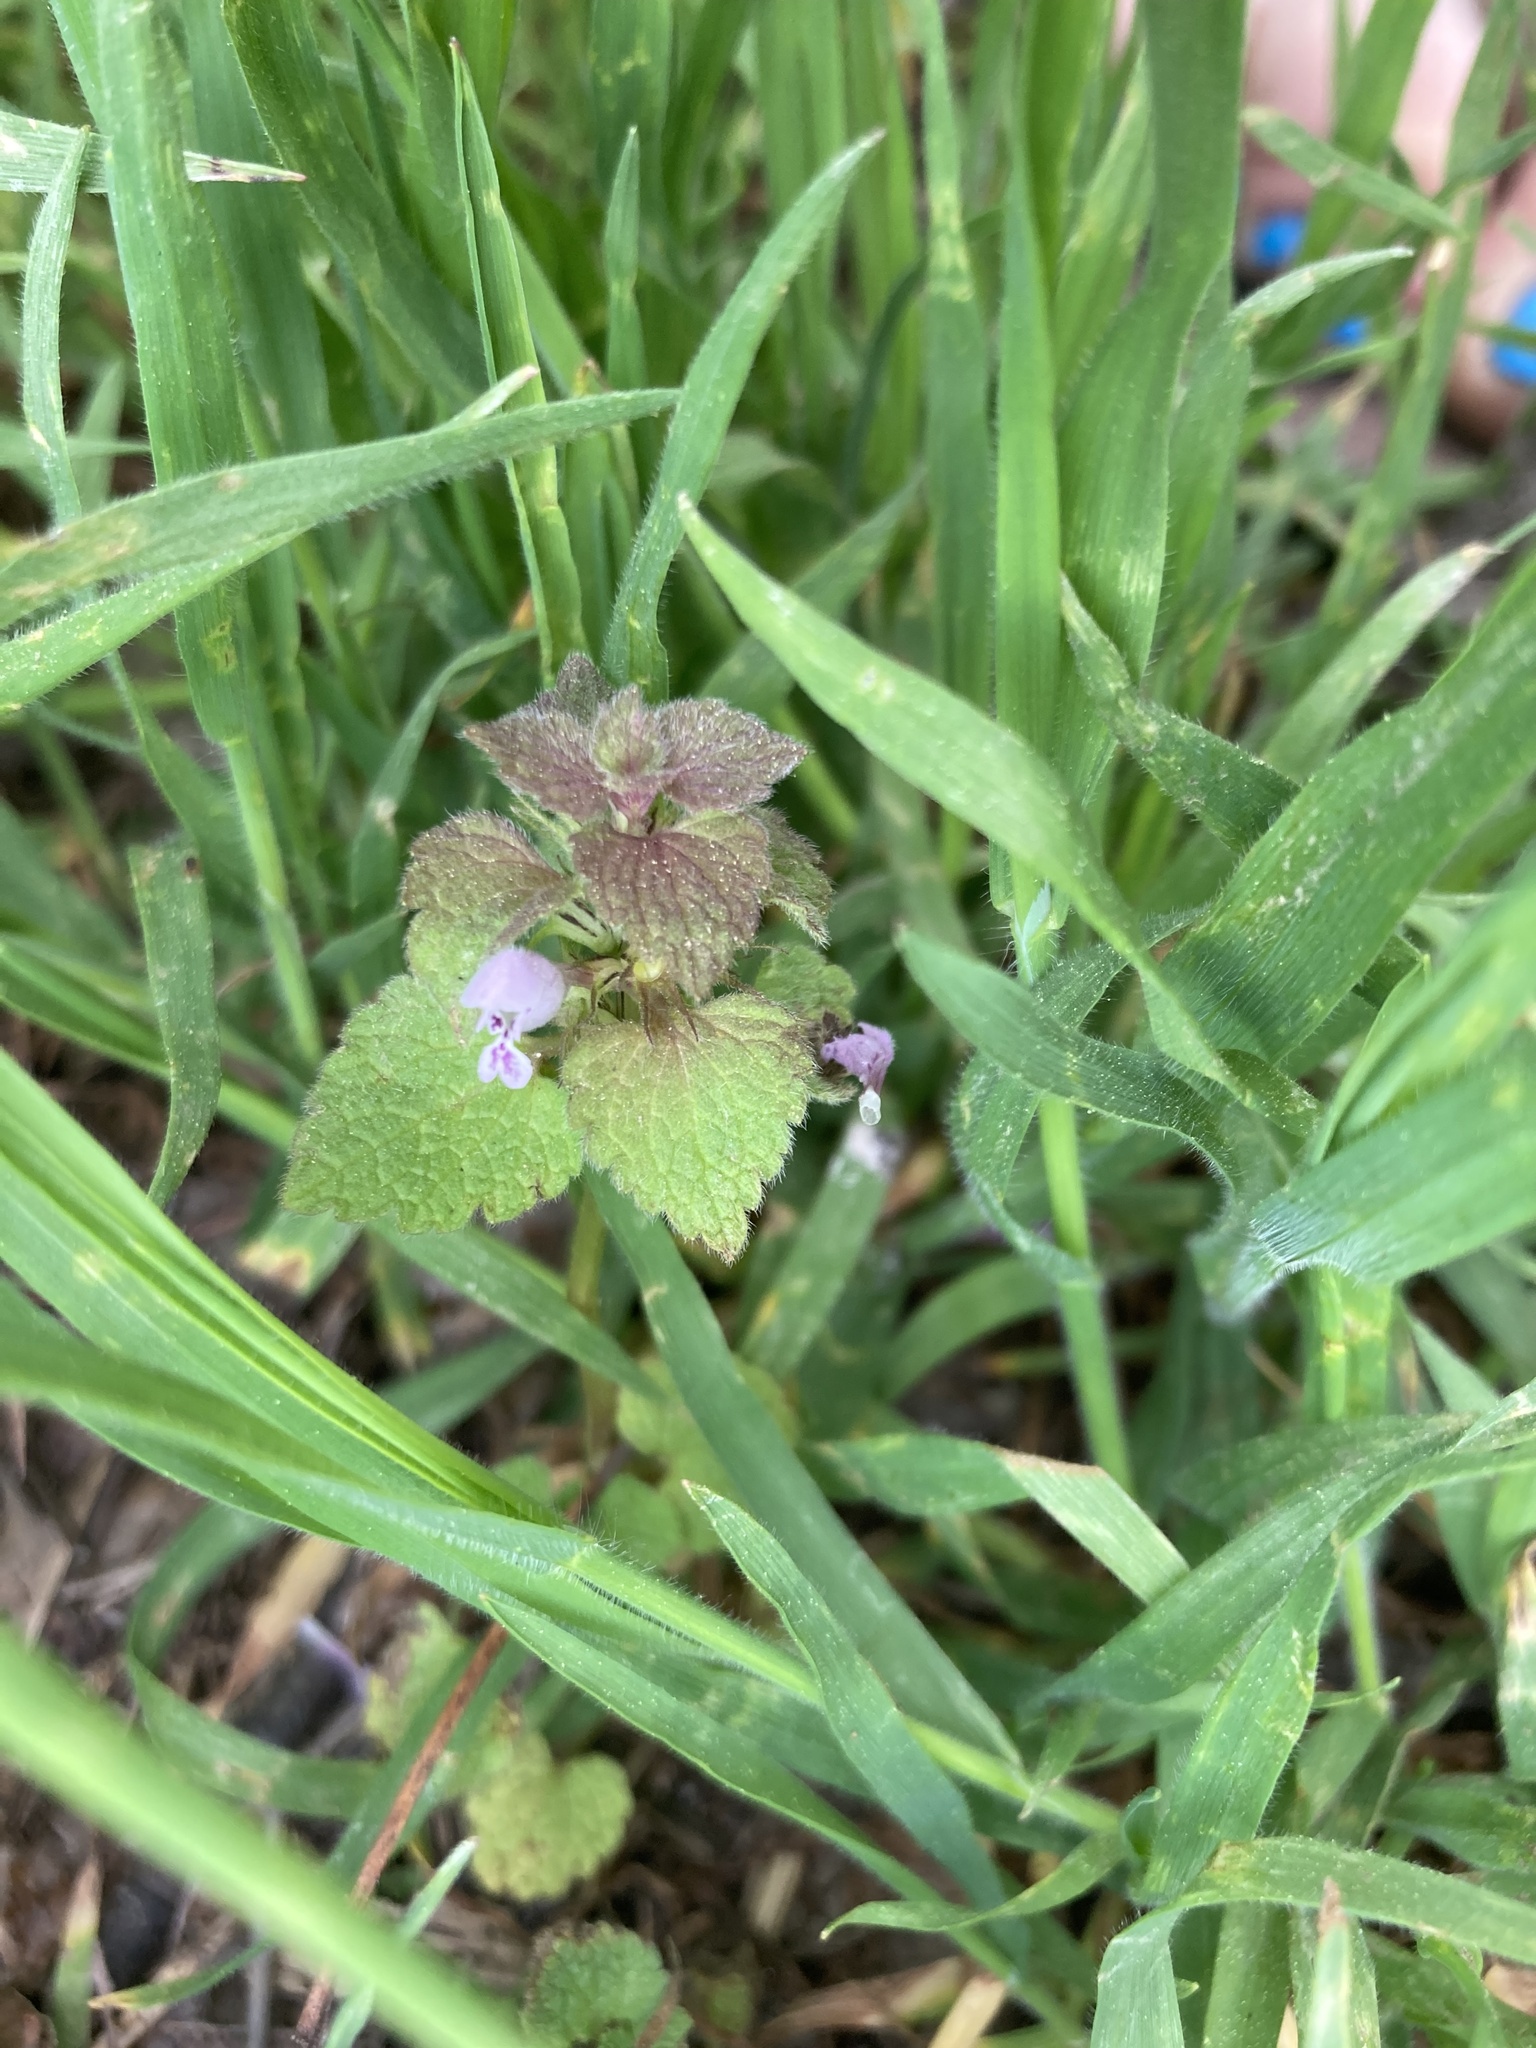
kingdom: Plantae
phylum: Tracheophyta
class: Magnoliopsida
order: Lamiales
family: Lamiaceae
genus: Lamium
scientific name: Lamium purpureum
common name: Red dead-nettle
